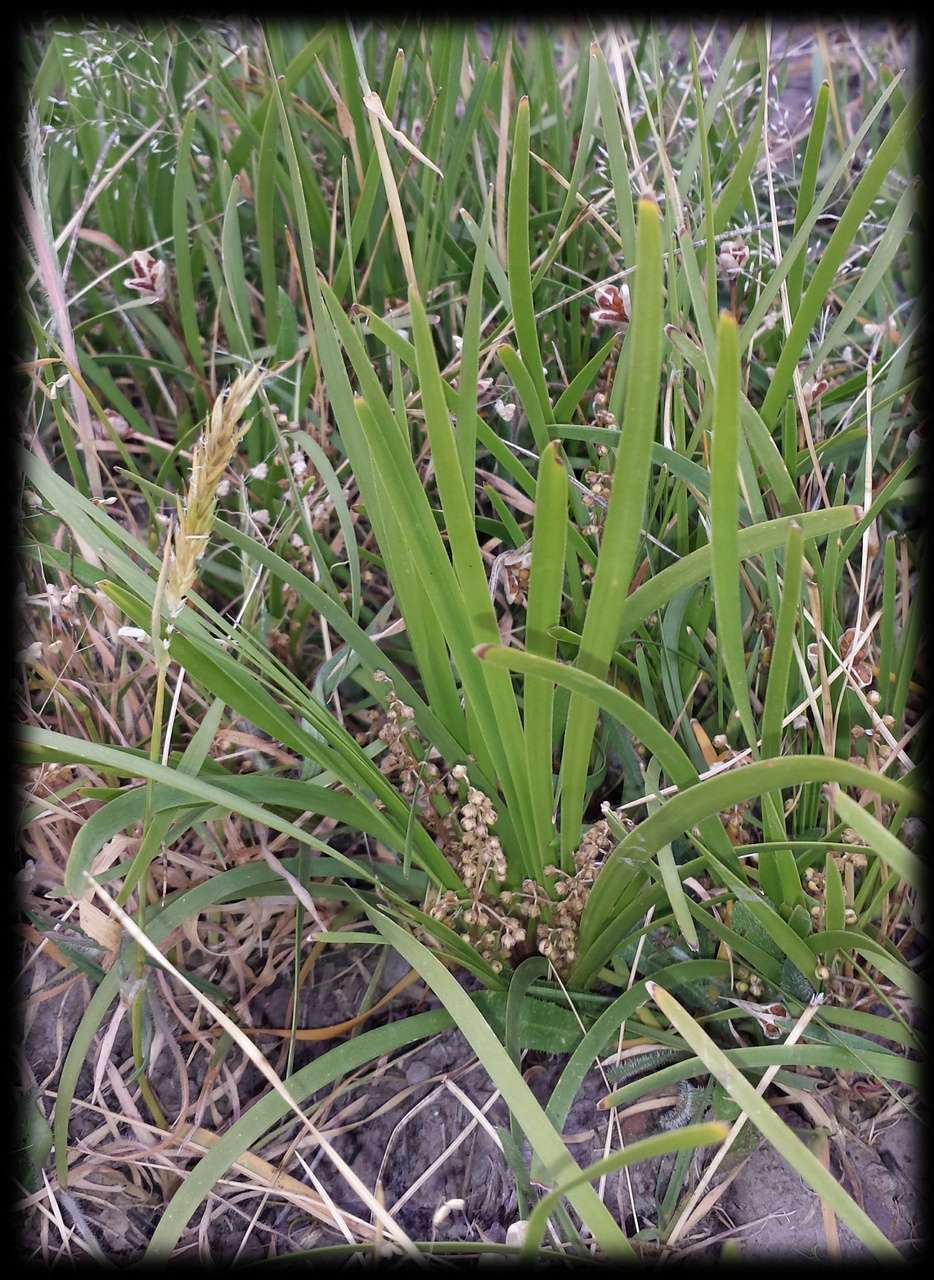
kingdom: Plantae
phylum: Tracheophyta
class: Liliopsida
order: Asparagales
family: Asparagaceae
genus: Lomandra
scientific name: Lomandra filiformis
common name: Wattle mat-rush
